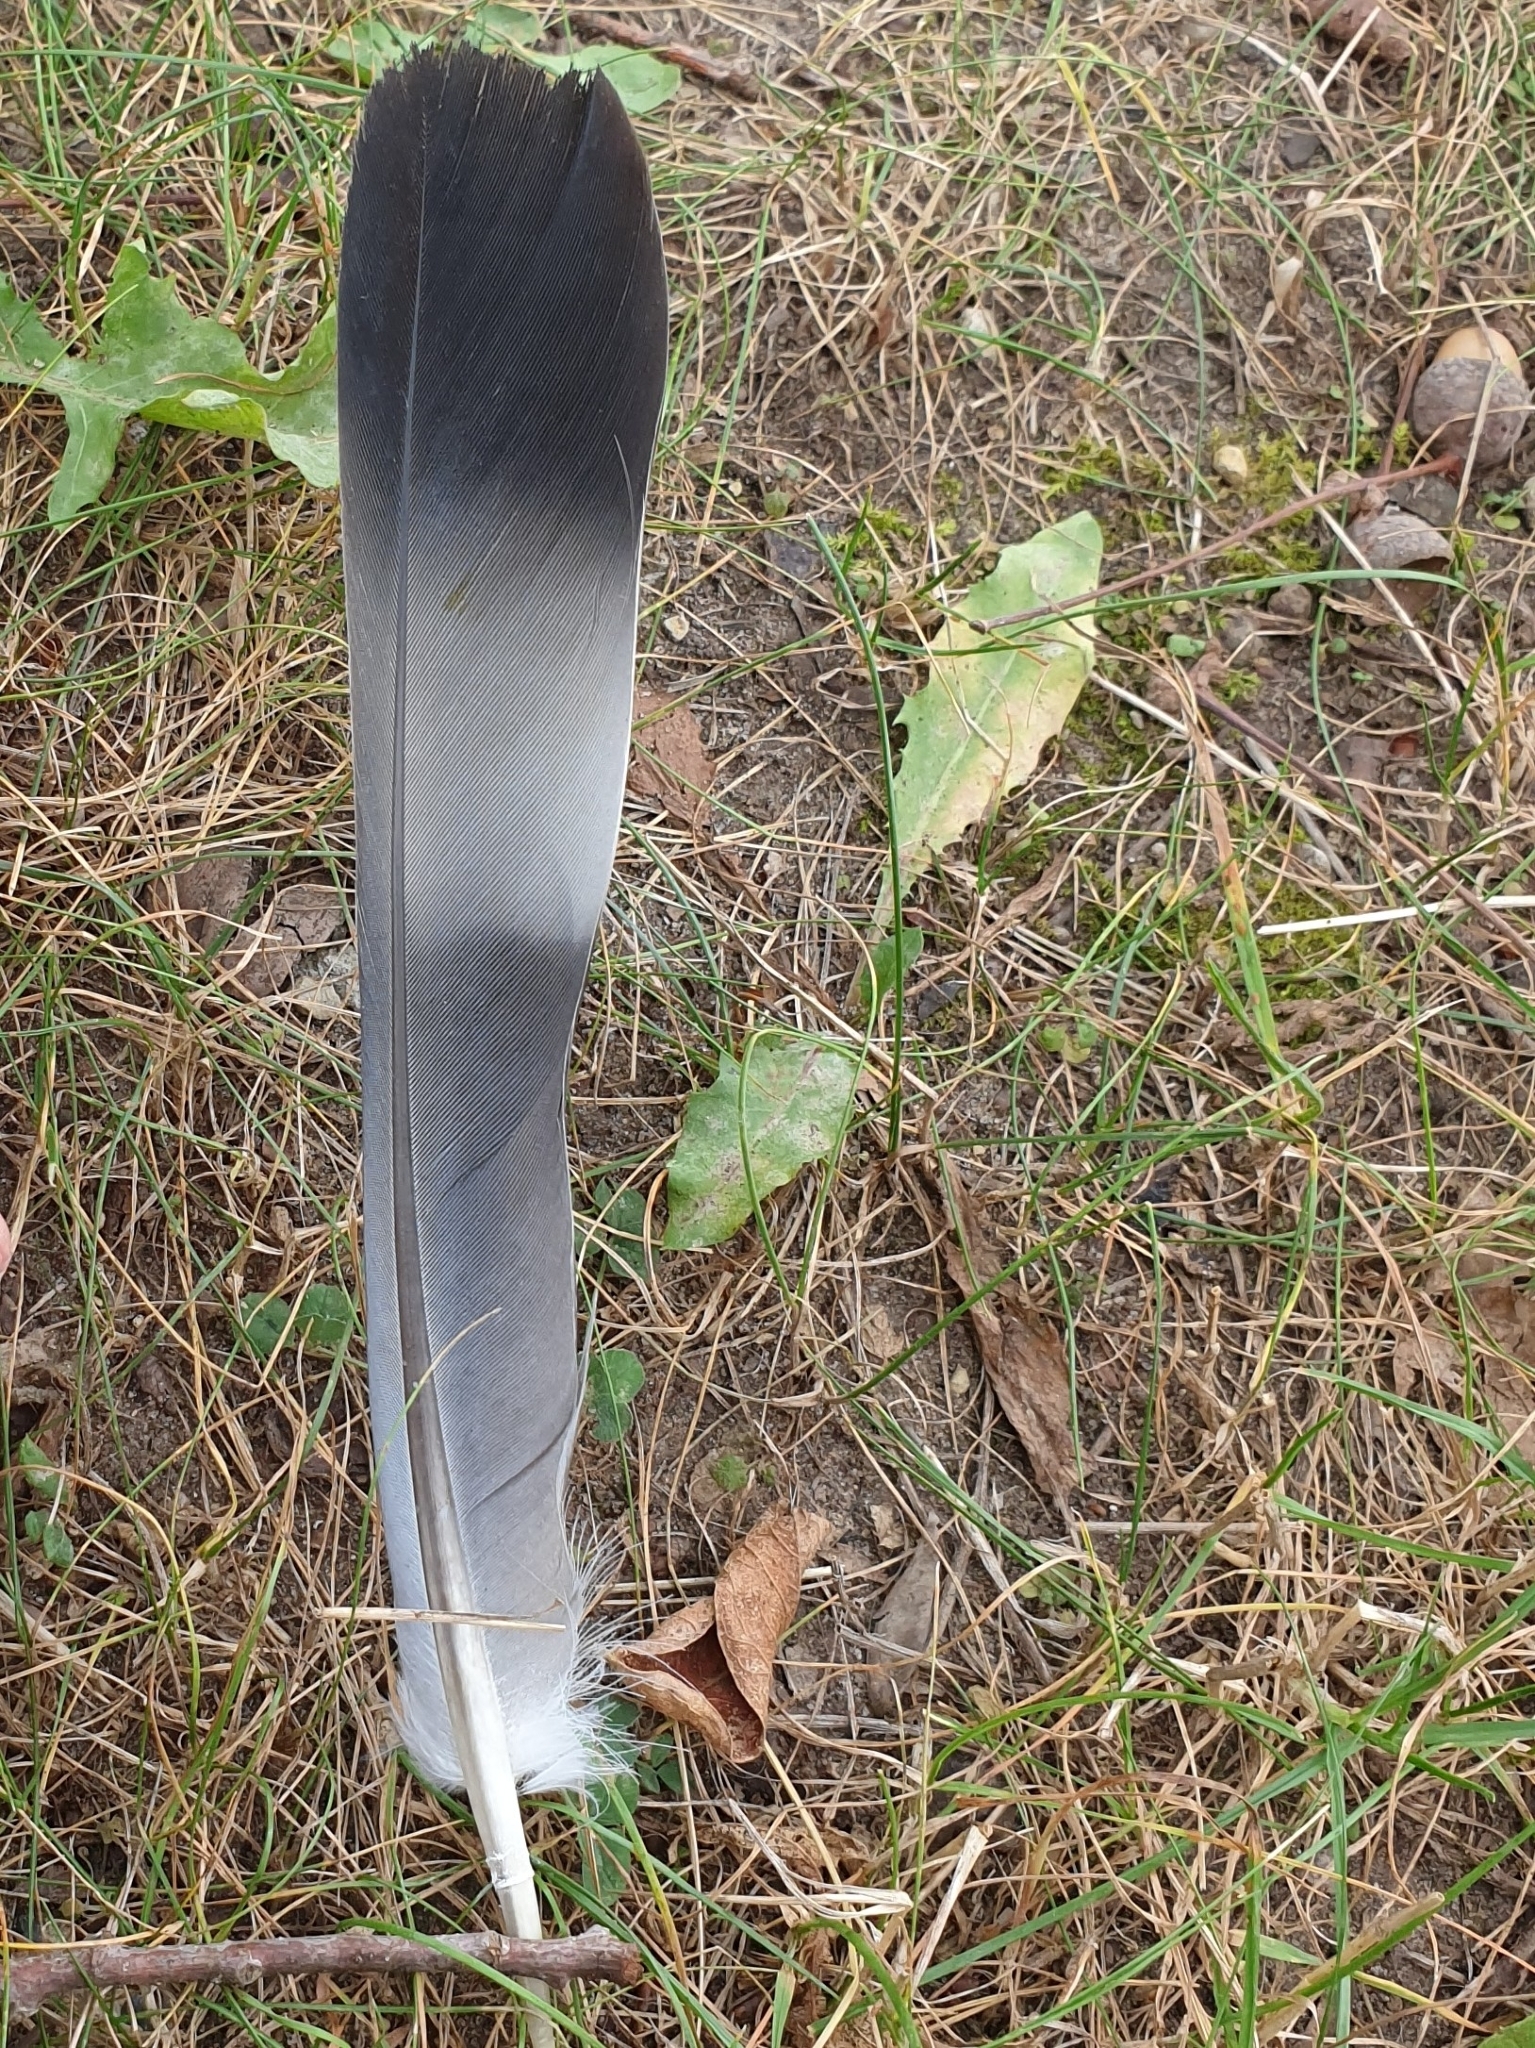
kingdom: Animalia
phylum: Chordata
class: Aves
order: Columbiformes
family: Columbidae
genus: Columba
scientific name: Columba palumbus
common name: Common wood pigeon
